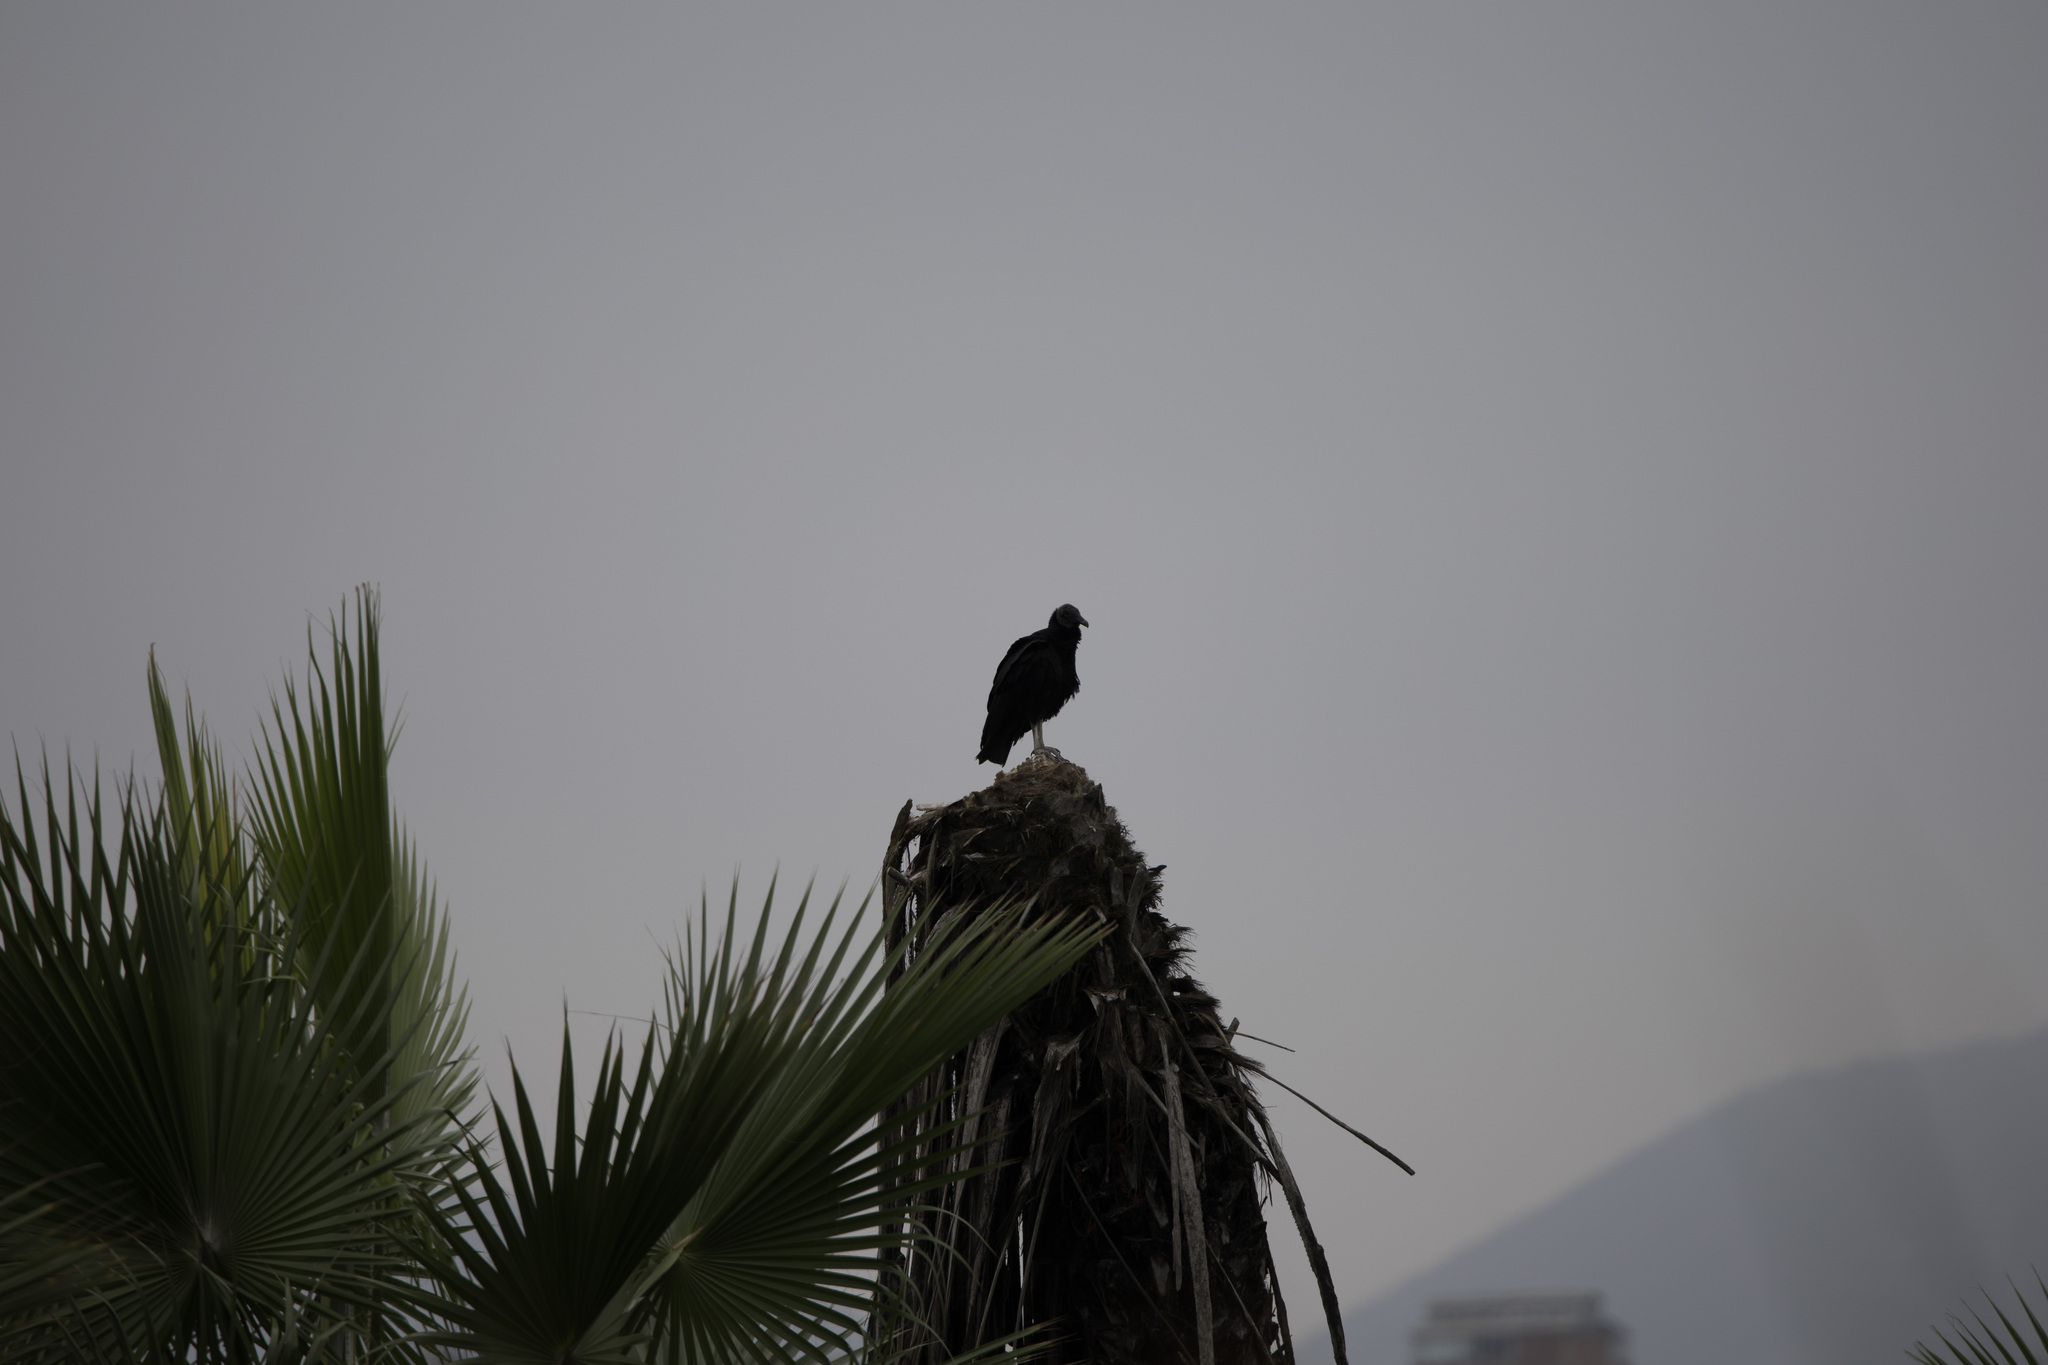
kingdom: Animalia
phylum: Chordata
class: Aves
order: Accipitriformes
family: Cathartidae
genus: Coragyps
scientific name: Coragyps atratus
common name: Black vulture
